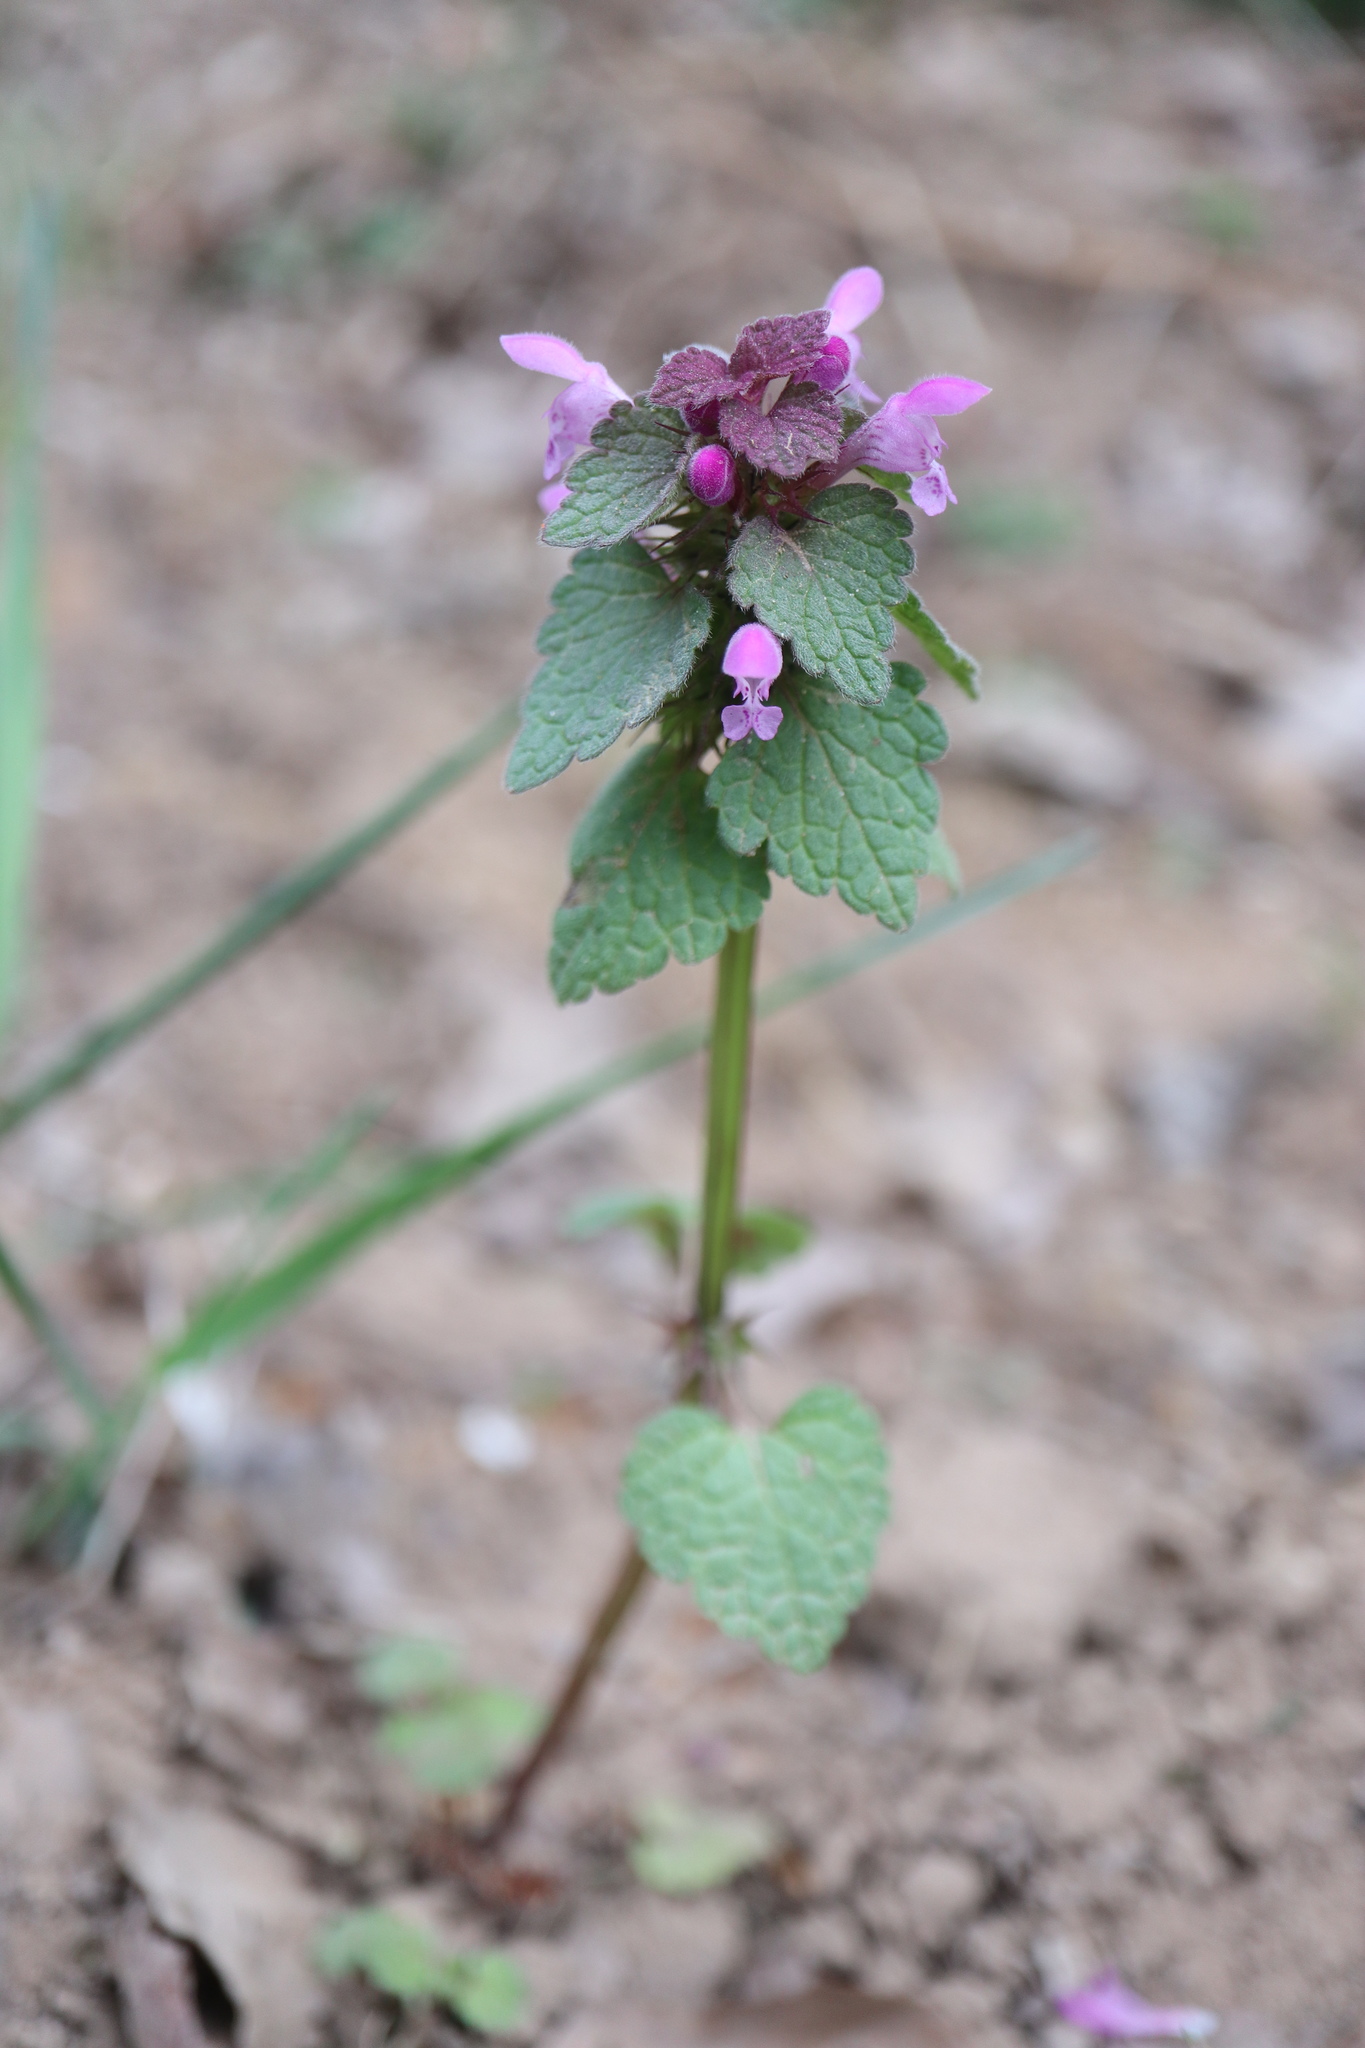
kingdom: Plantae
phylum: Tracheophyta
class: Magnoliopsida
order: Lamiales
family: Lamiaceae
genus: Lamium
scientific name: Lamium purpureum
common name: Red dead-nettle
